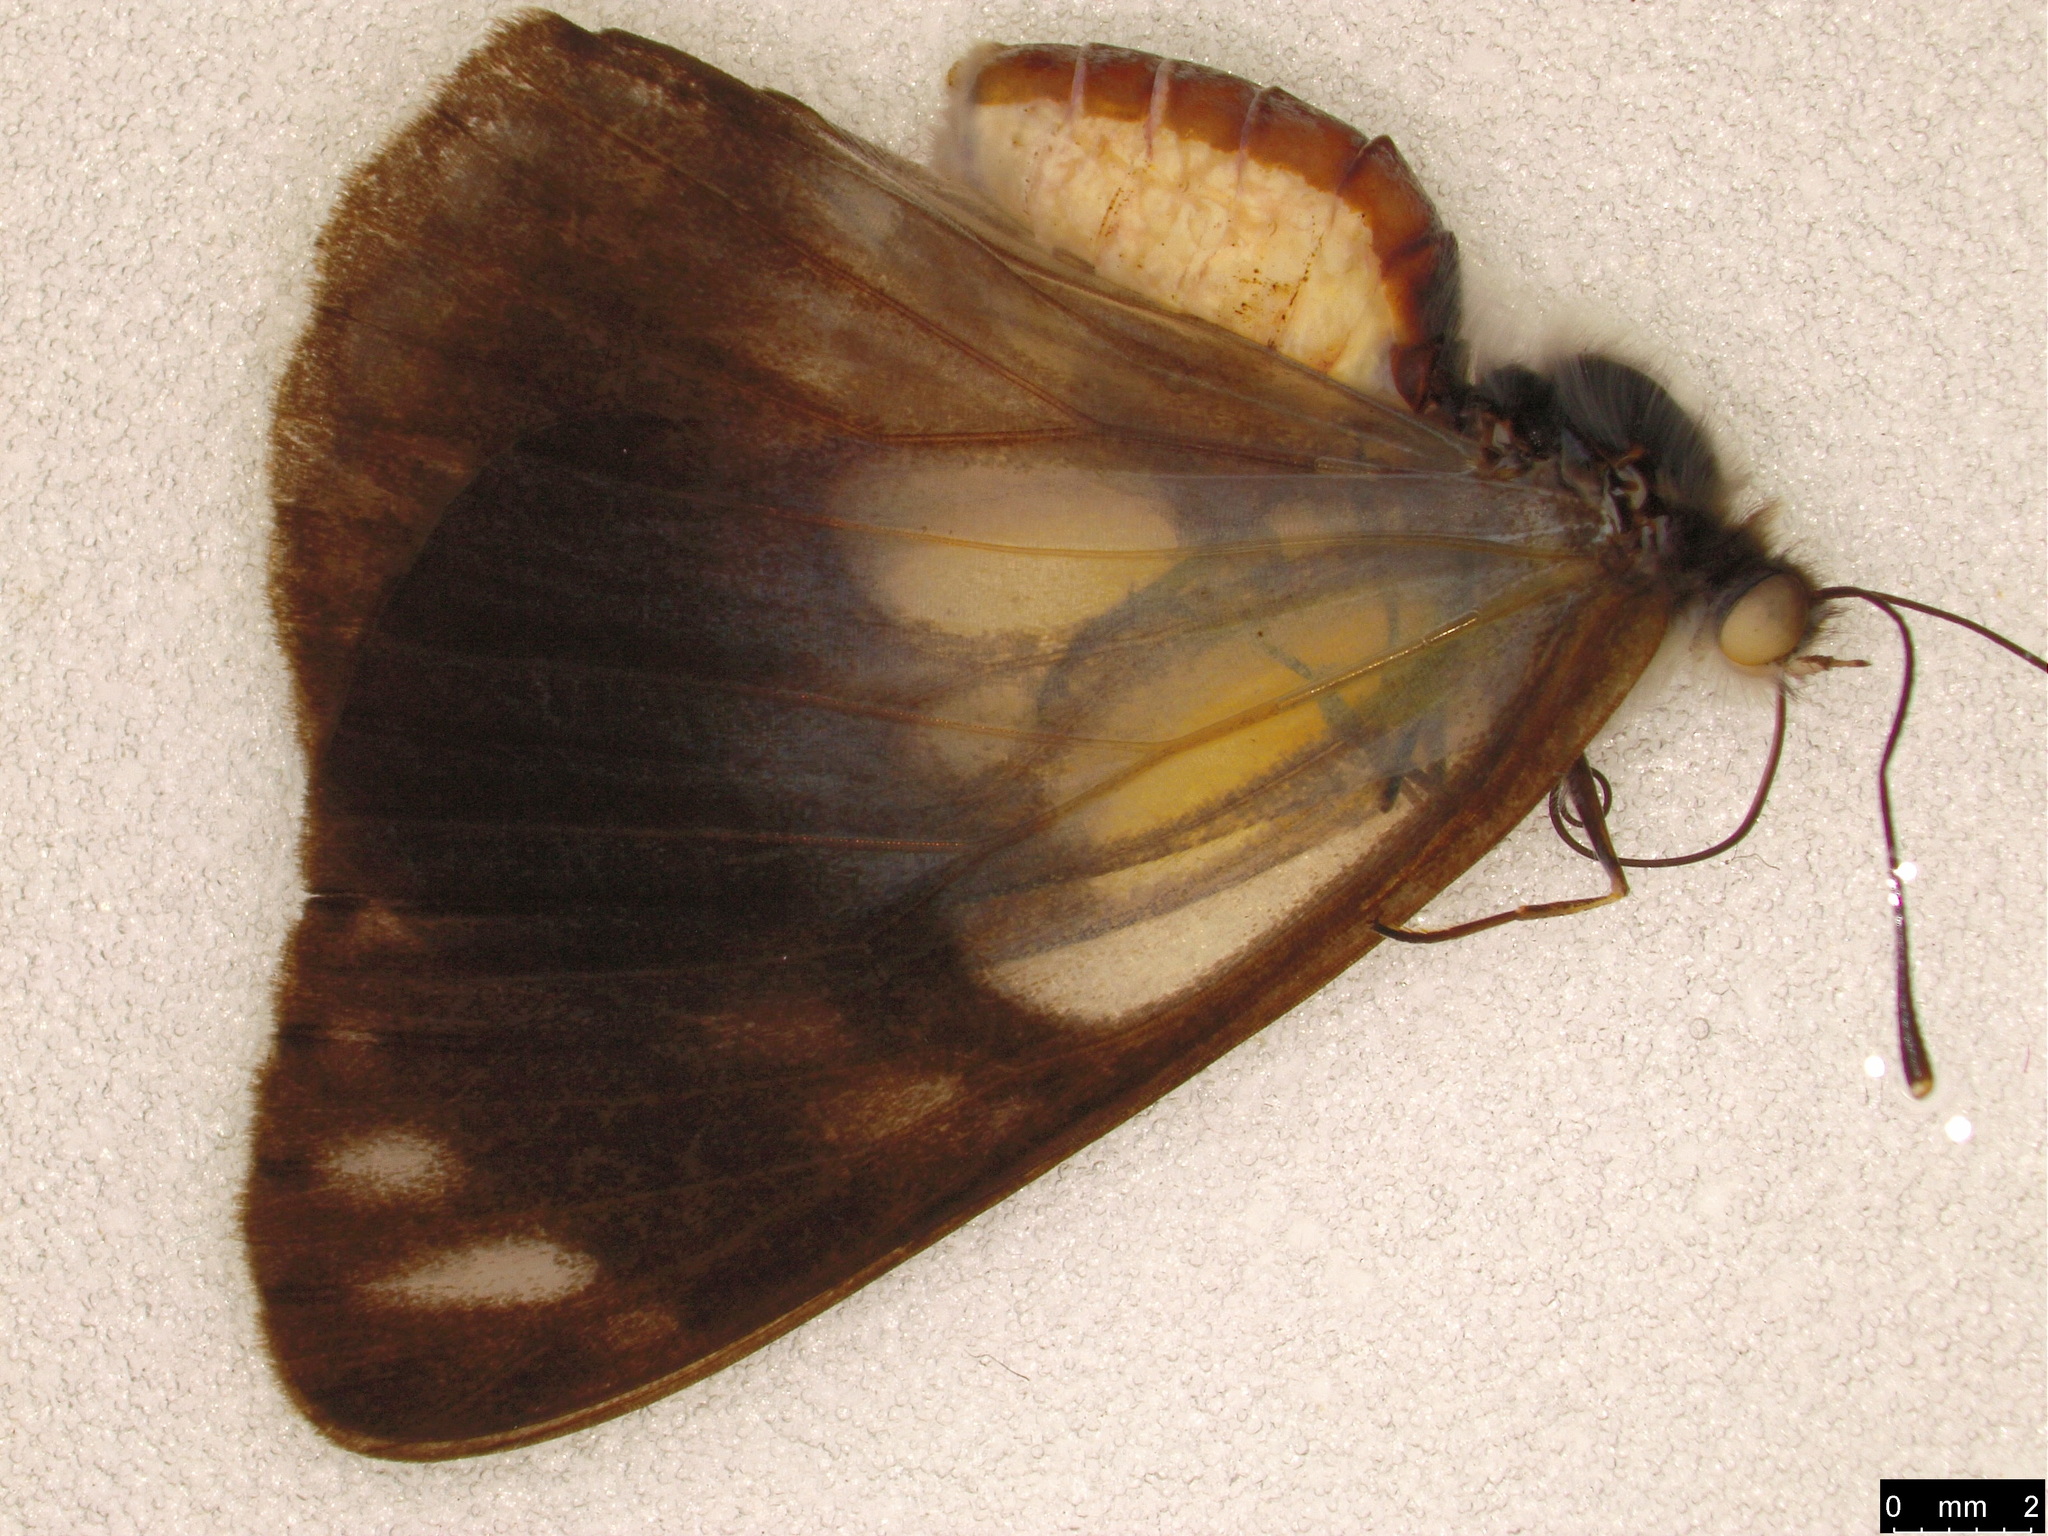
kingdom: Animalia
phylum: Arthropoda
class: Insecta
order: Lepidoptera
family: Pieridae
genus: Belenois
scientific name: Belenois java
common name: Caper white
